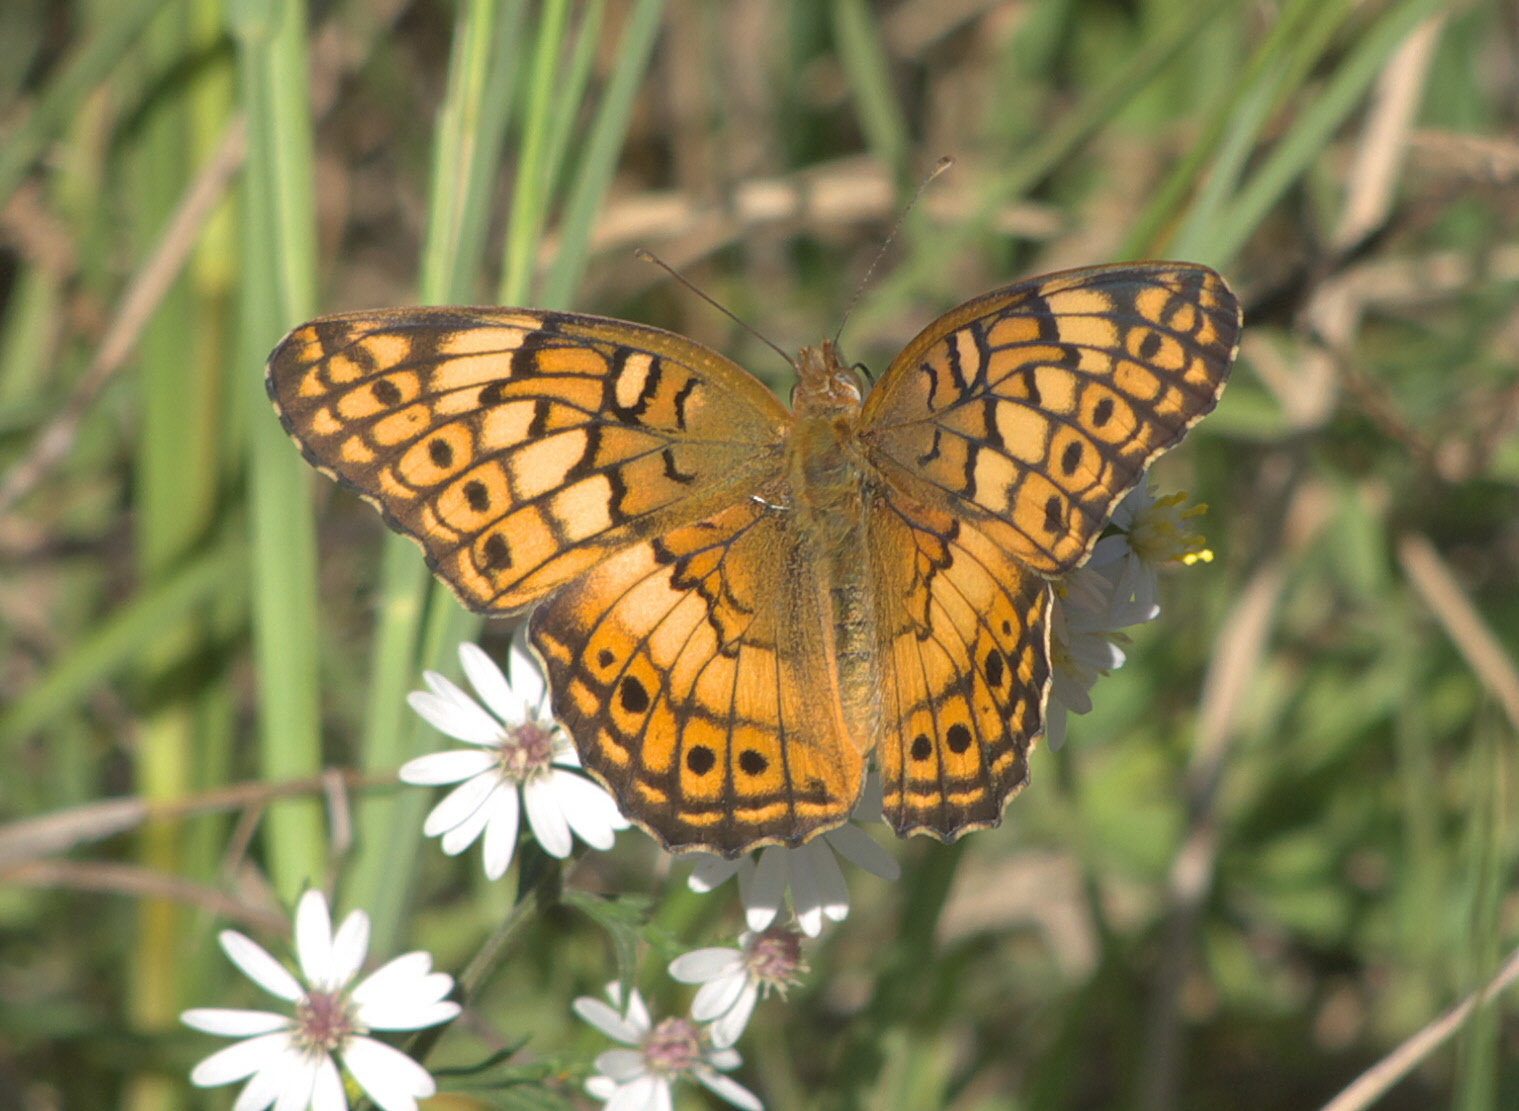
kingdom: Animalia
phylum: Arthropoda
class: Insecta
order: Lepidoptera
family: Nymphalidae
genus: Euptoieta
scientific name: Euptoieta claudia
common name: Variegated fritillary
